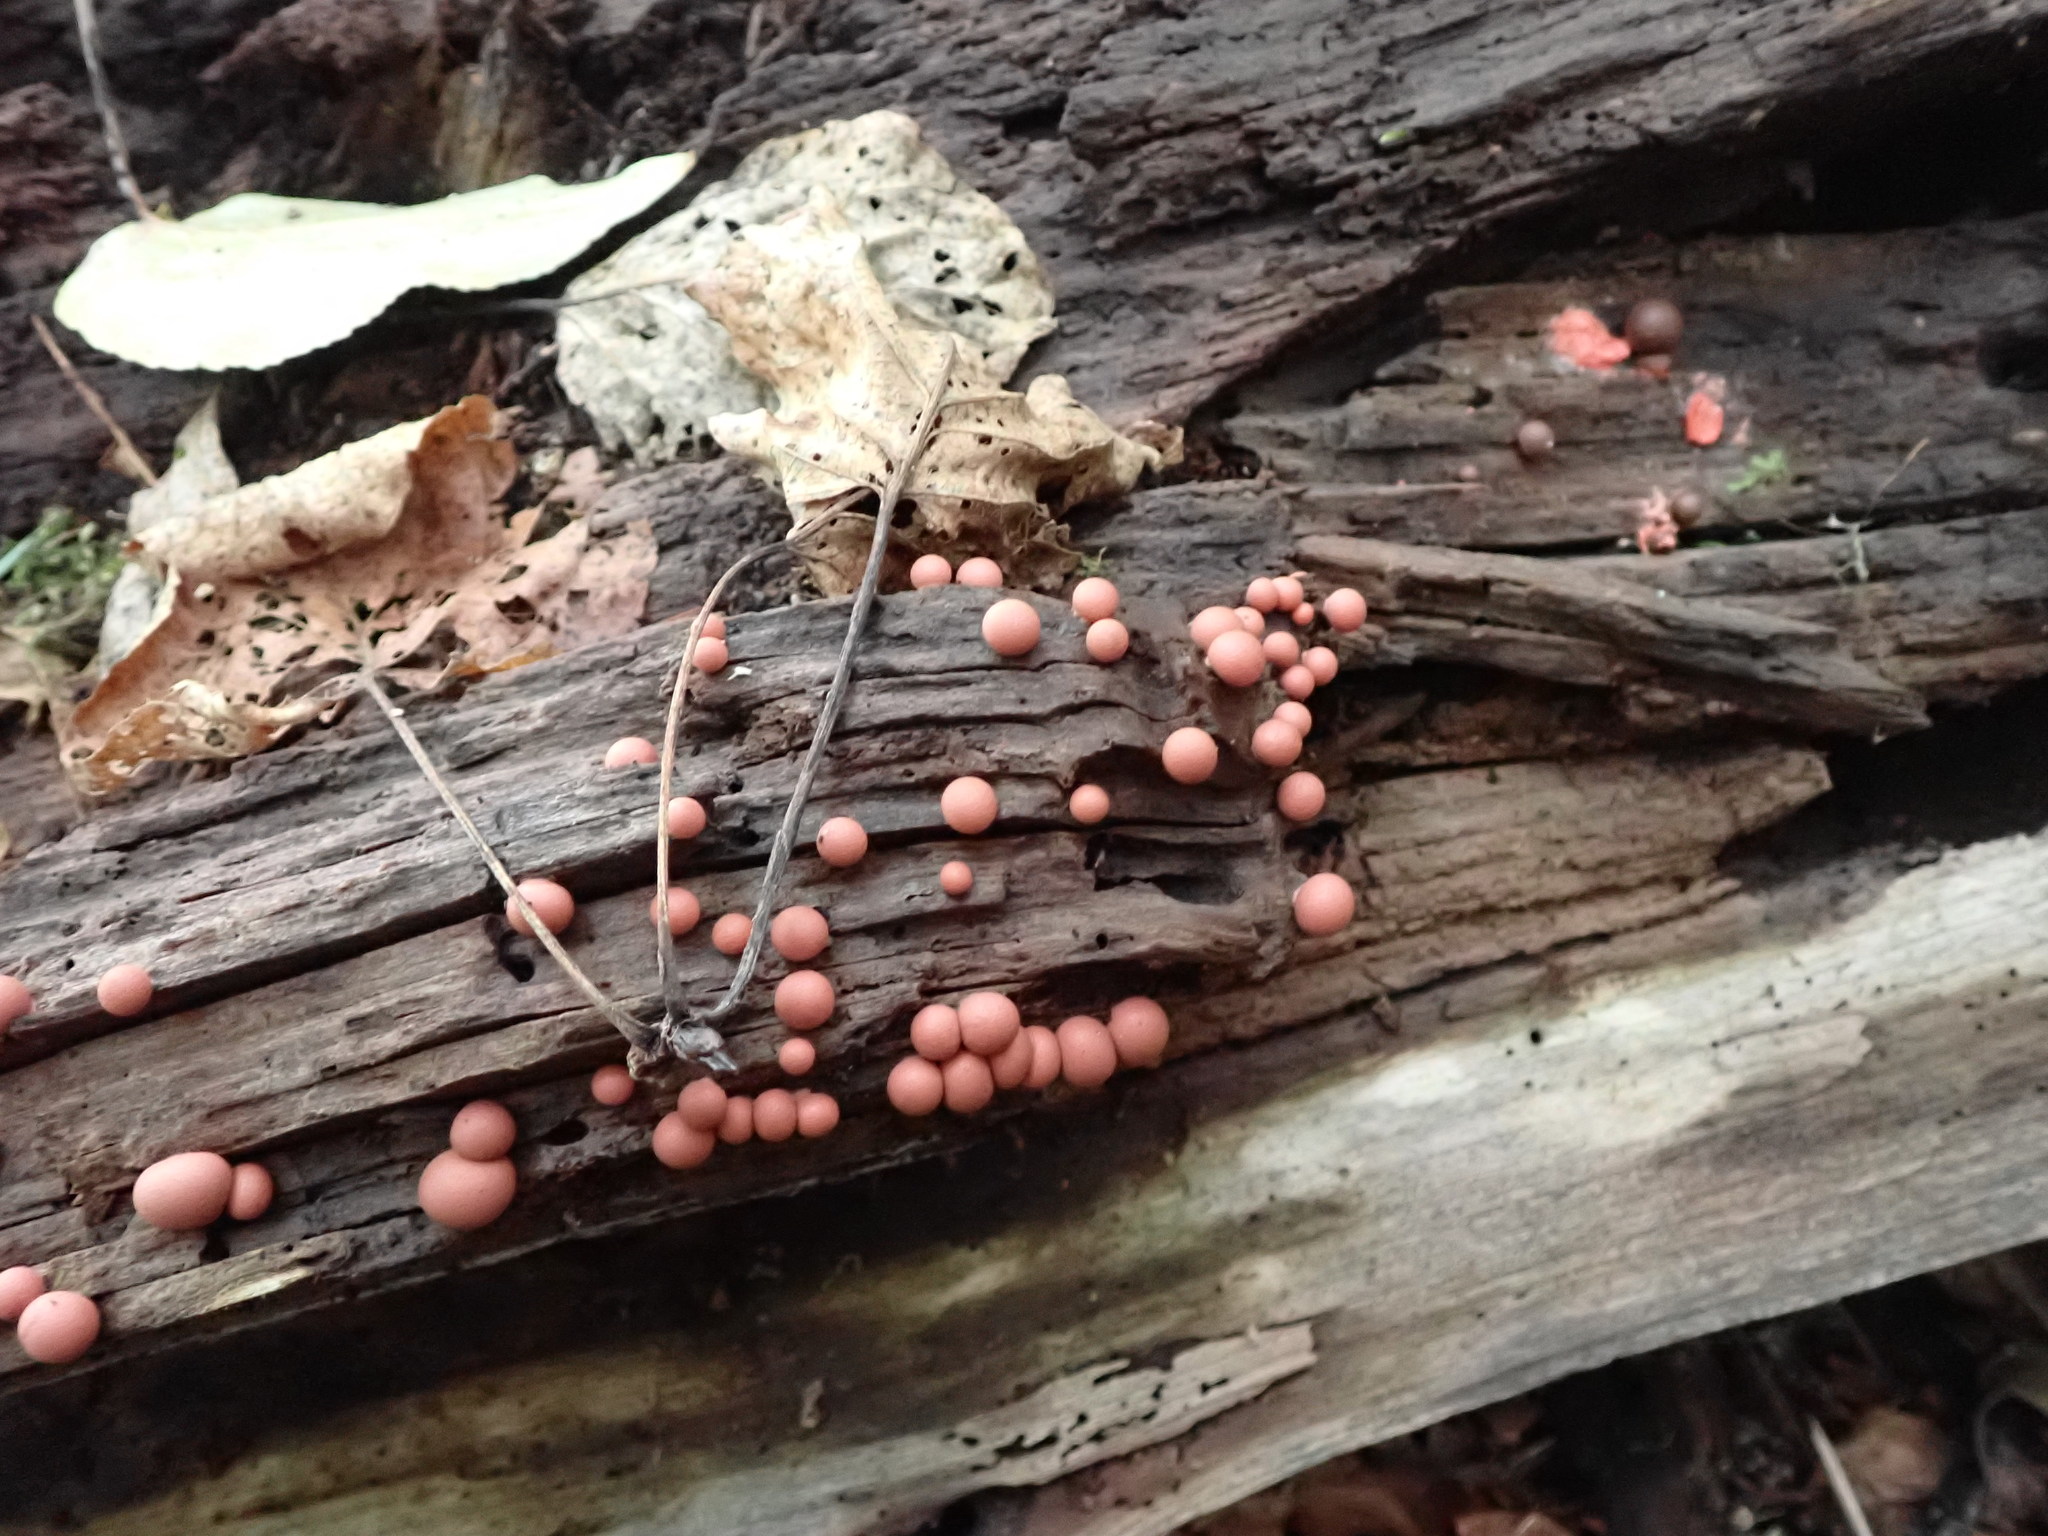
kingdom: Protozoa
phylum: Mycetozoa
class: Myxomycetes
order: Cribrariales
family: Tubiferaceae
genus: Lycogala
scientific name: Lycogala epidendrum
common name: Wolf's milk
